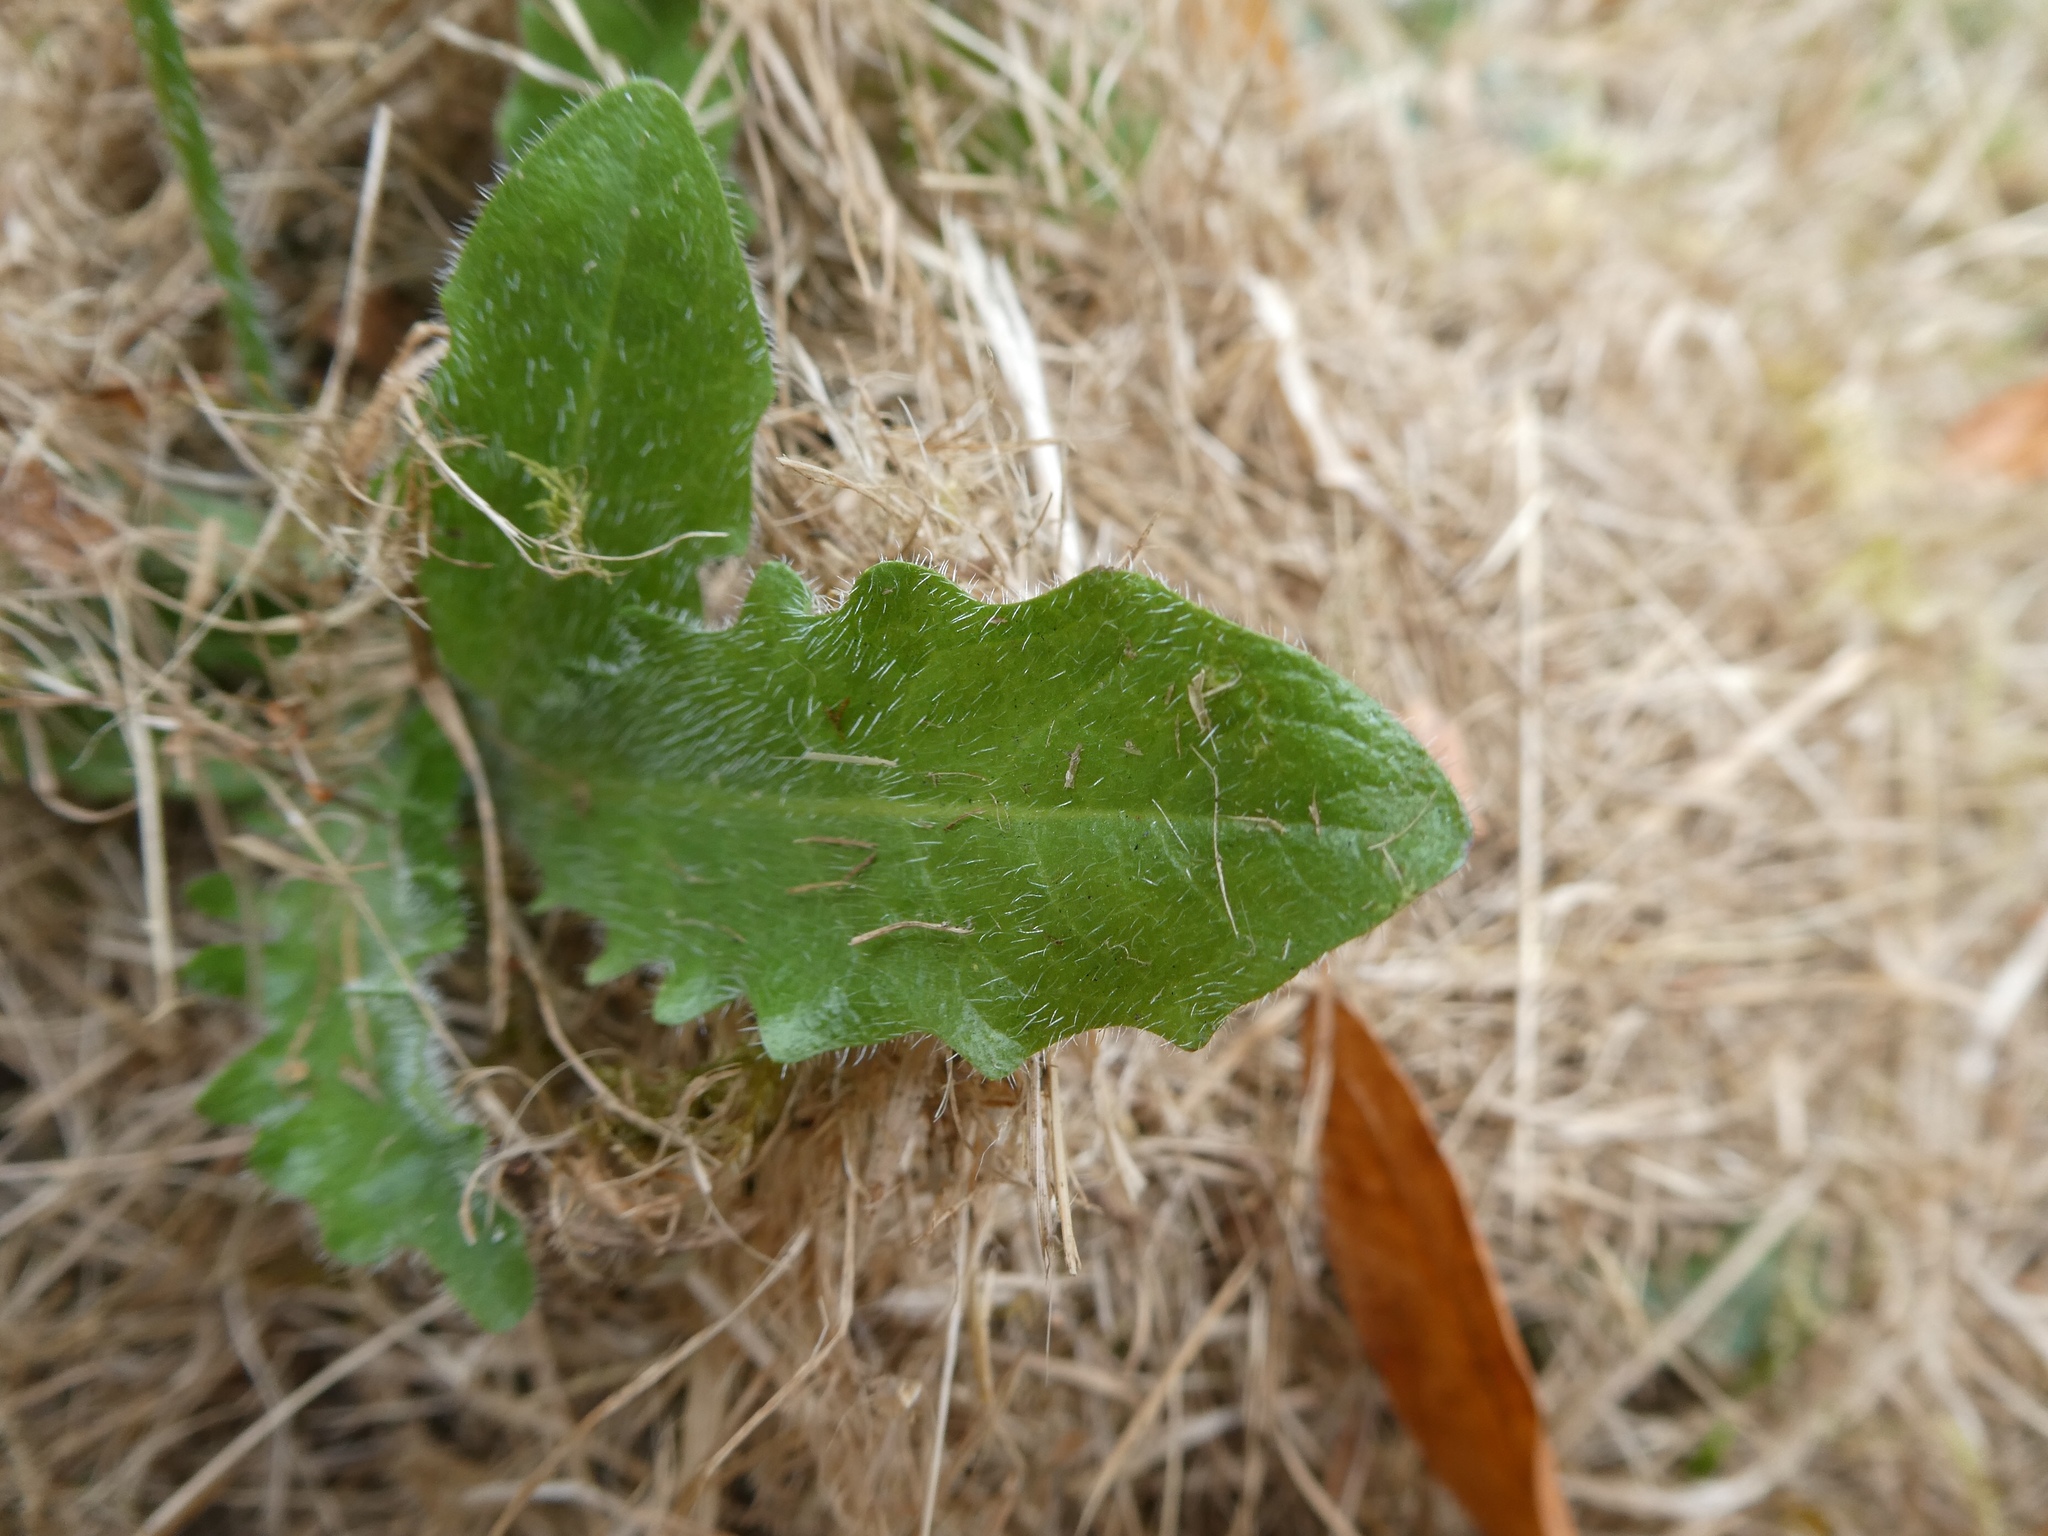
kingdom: Plantae
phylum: Tracheophyta
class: Magnoliopsida
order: Asterales
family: Asteraceae
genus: Hypochaeris
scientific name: Hypochaeris radicata
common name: Flatweed
